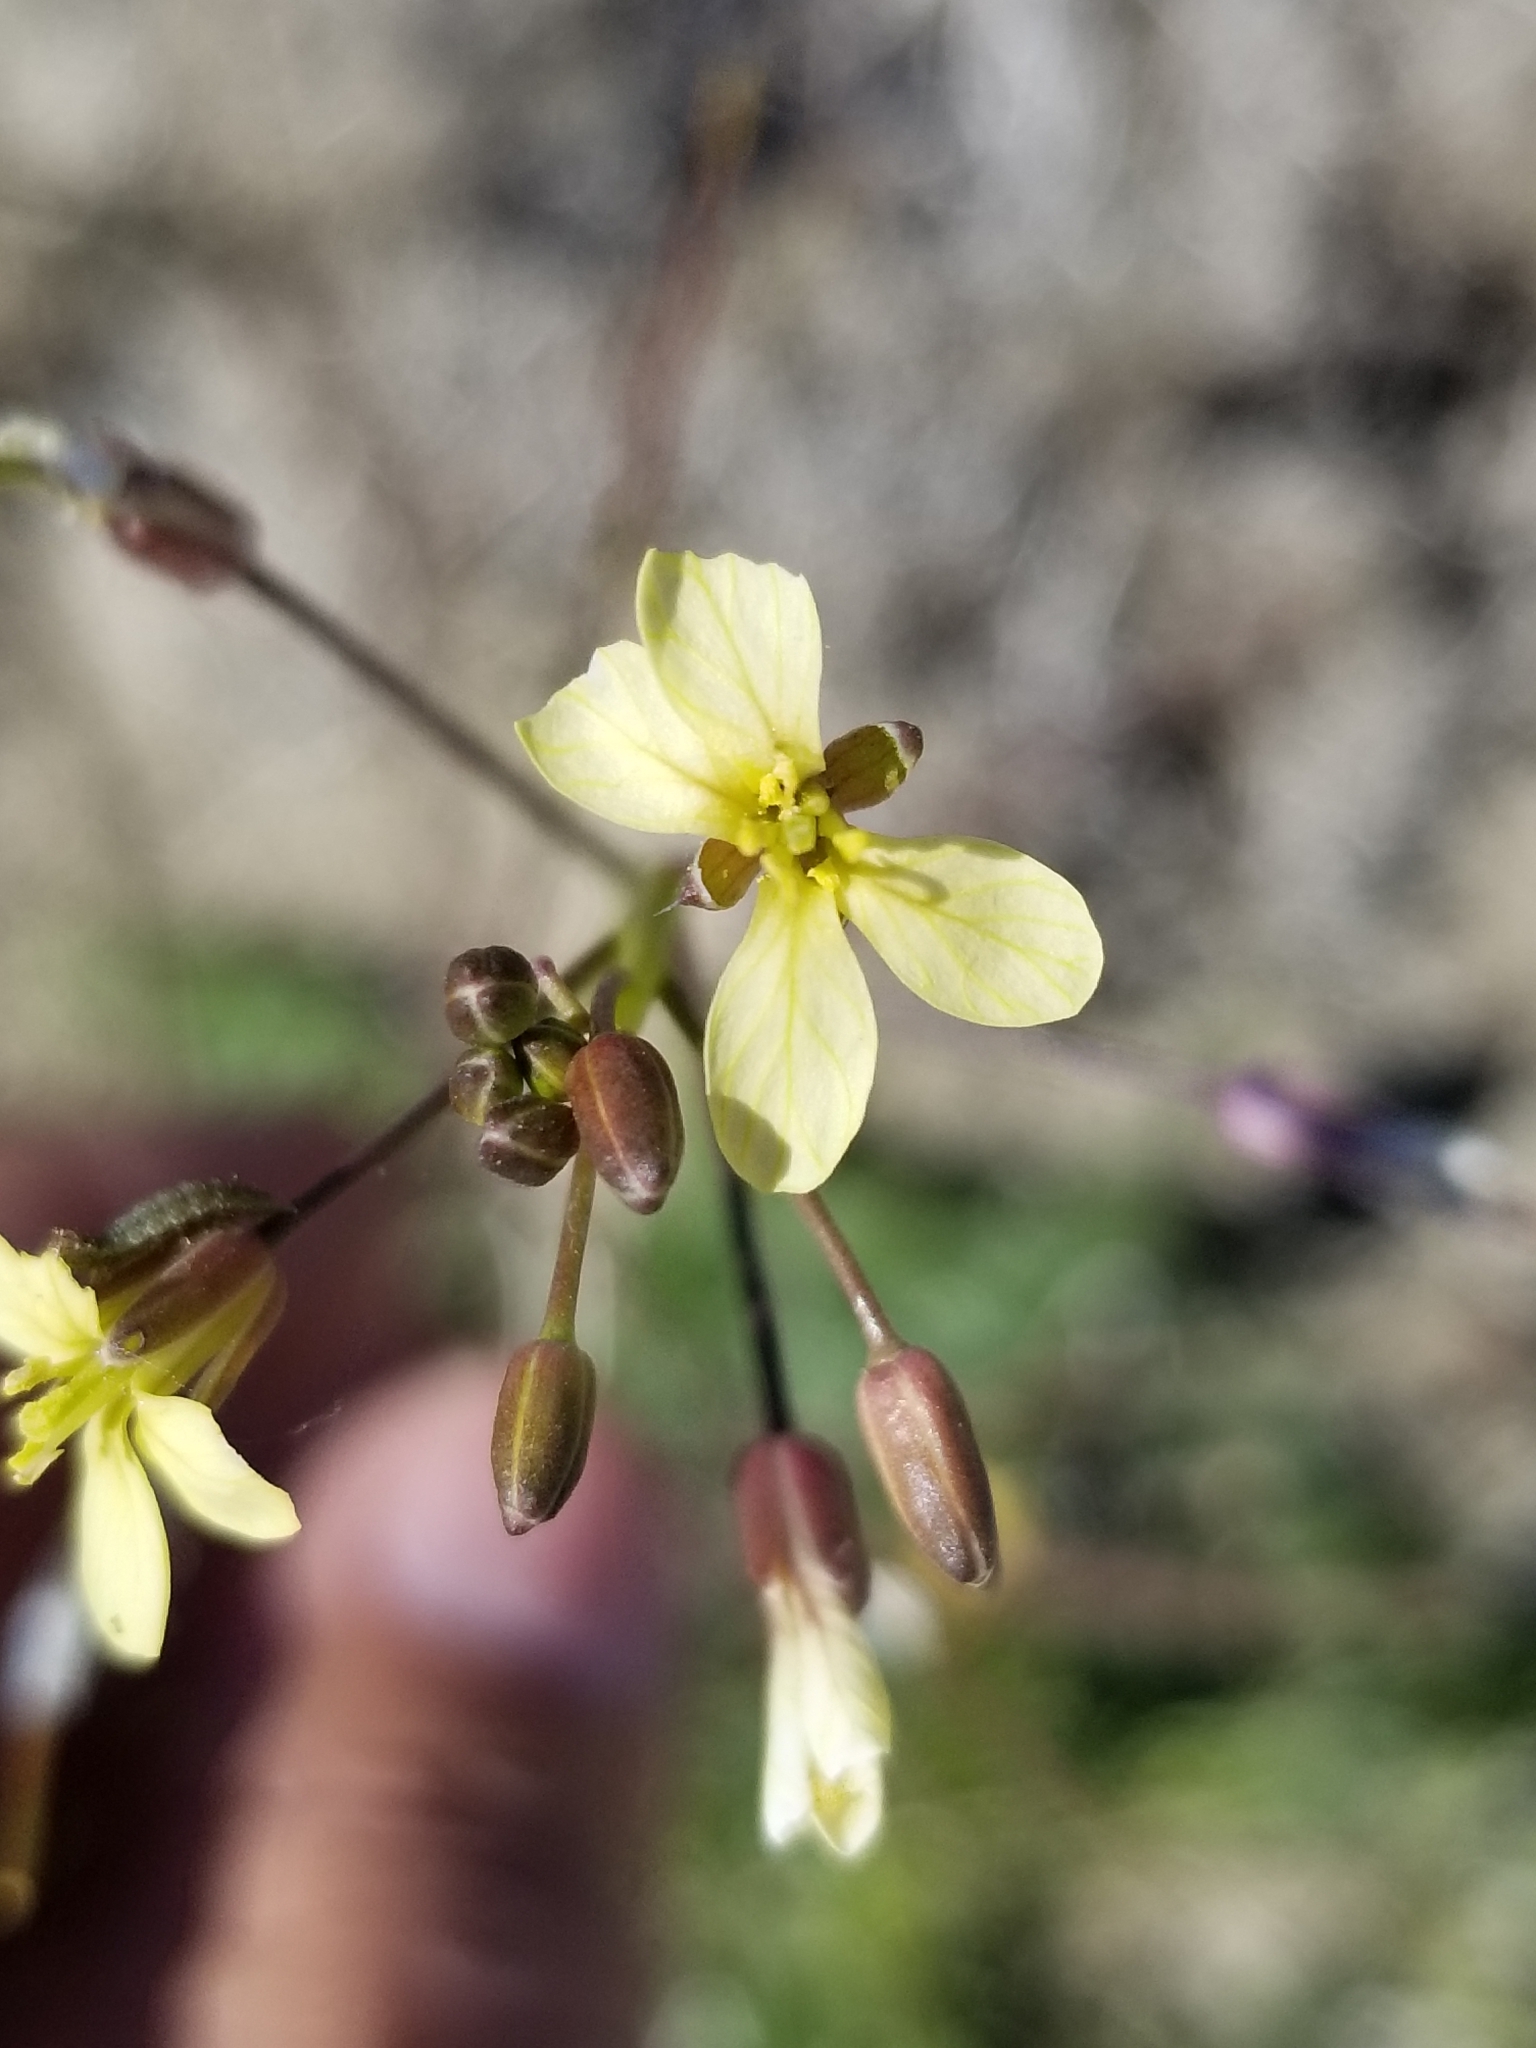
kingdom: Plantae
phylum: Tracheophyta
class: Magnoliopsida
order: Brassicales
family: Brassicaceae
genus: Brassica
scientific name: Brassica tournefortii
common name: Pale cabbage
